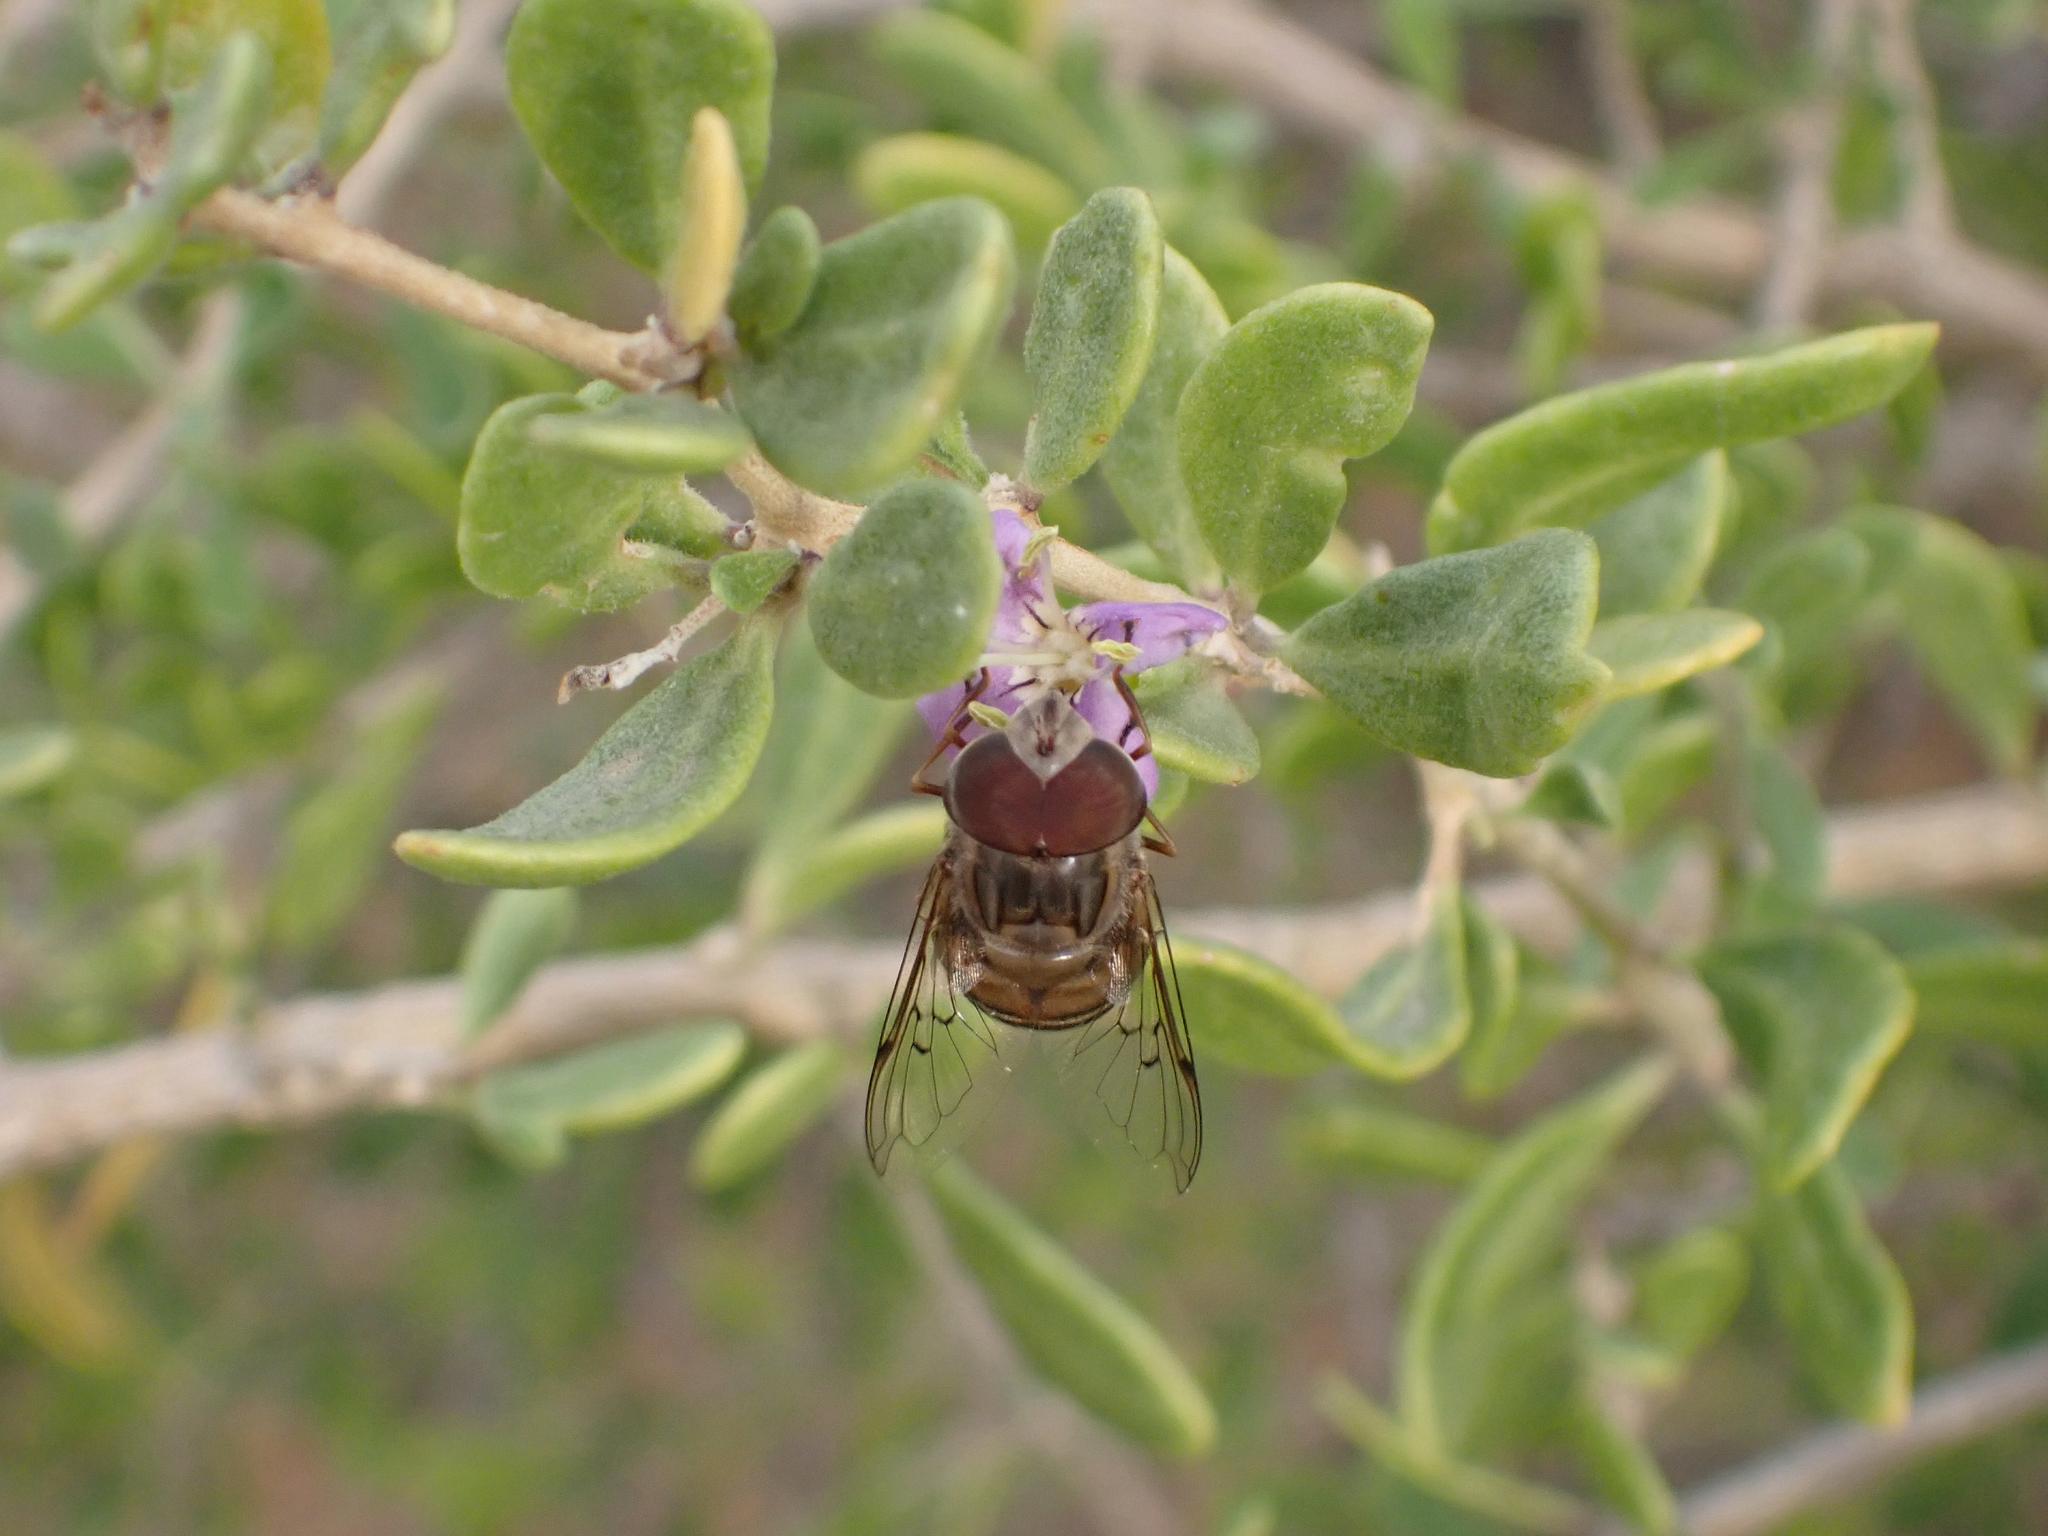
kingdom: Animalia
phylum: Arthropoda
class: Insecta
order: Diptera
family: Syrphidae
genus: Copestylum
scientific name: Copestylum isabellina
